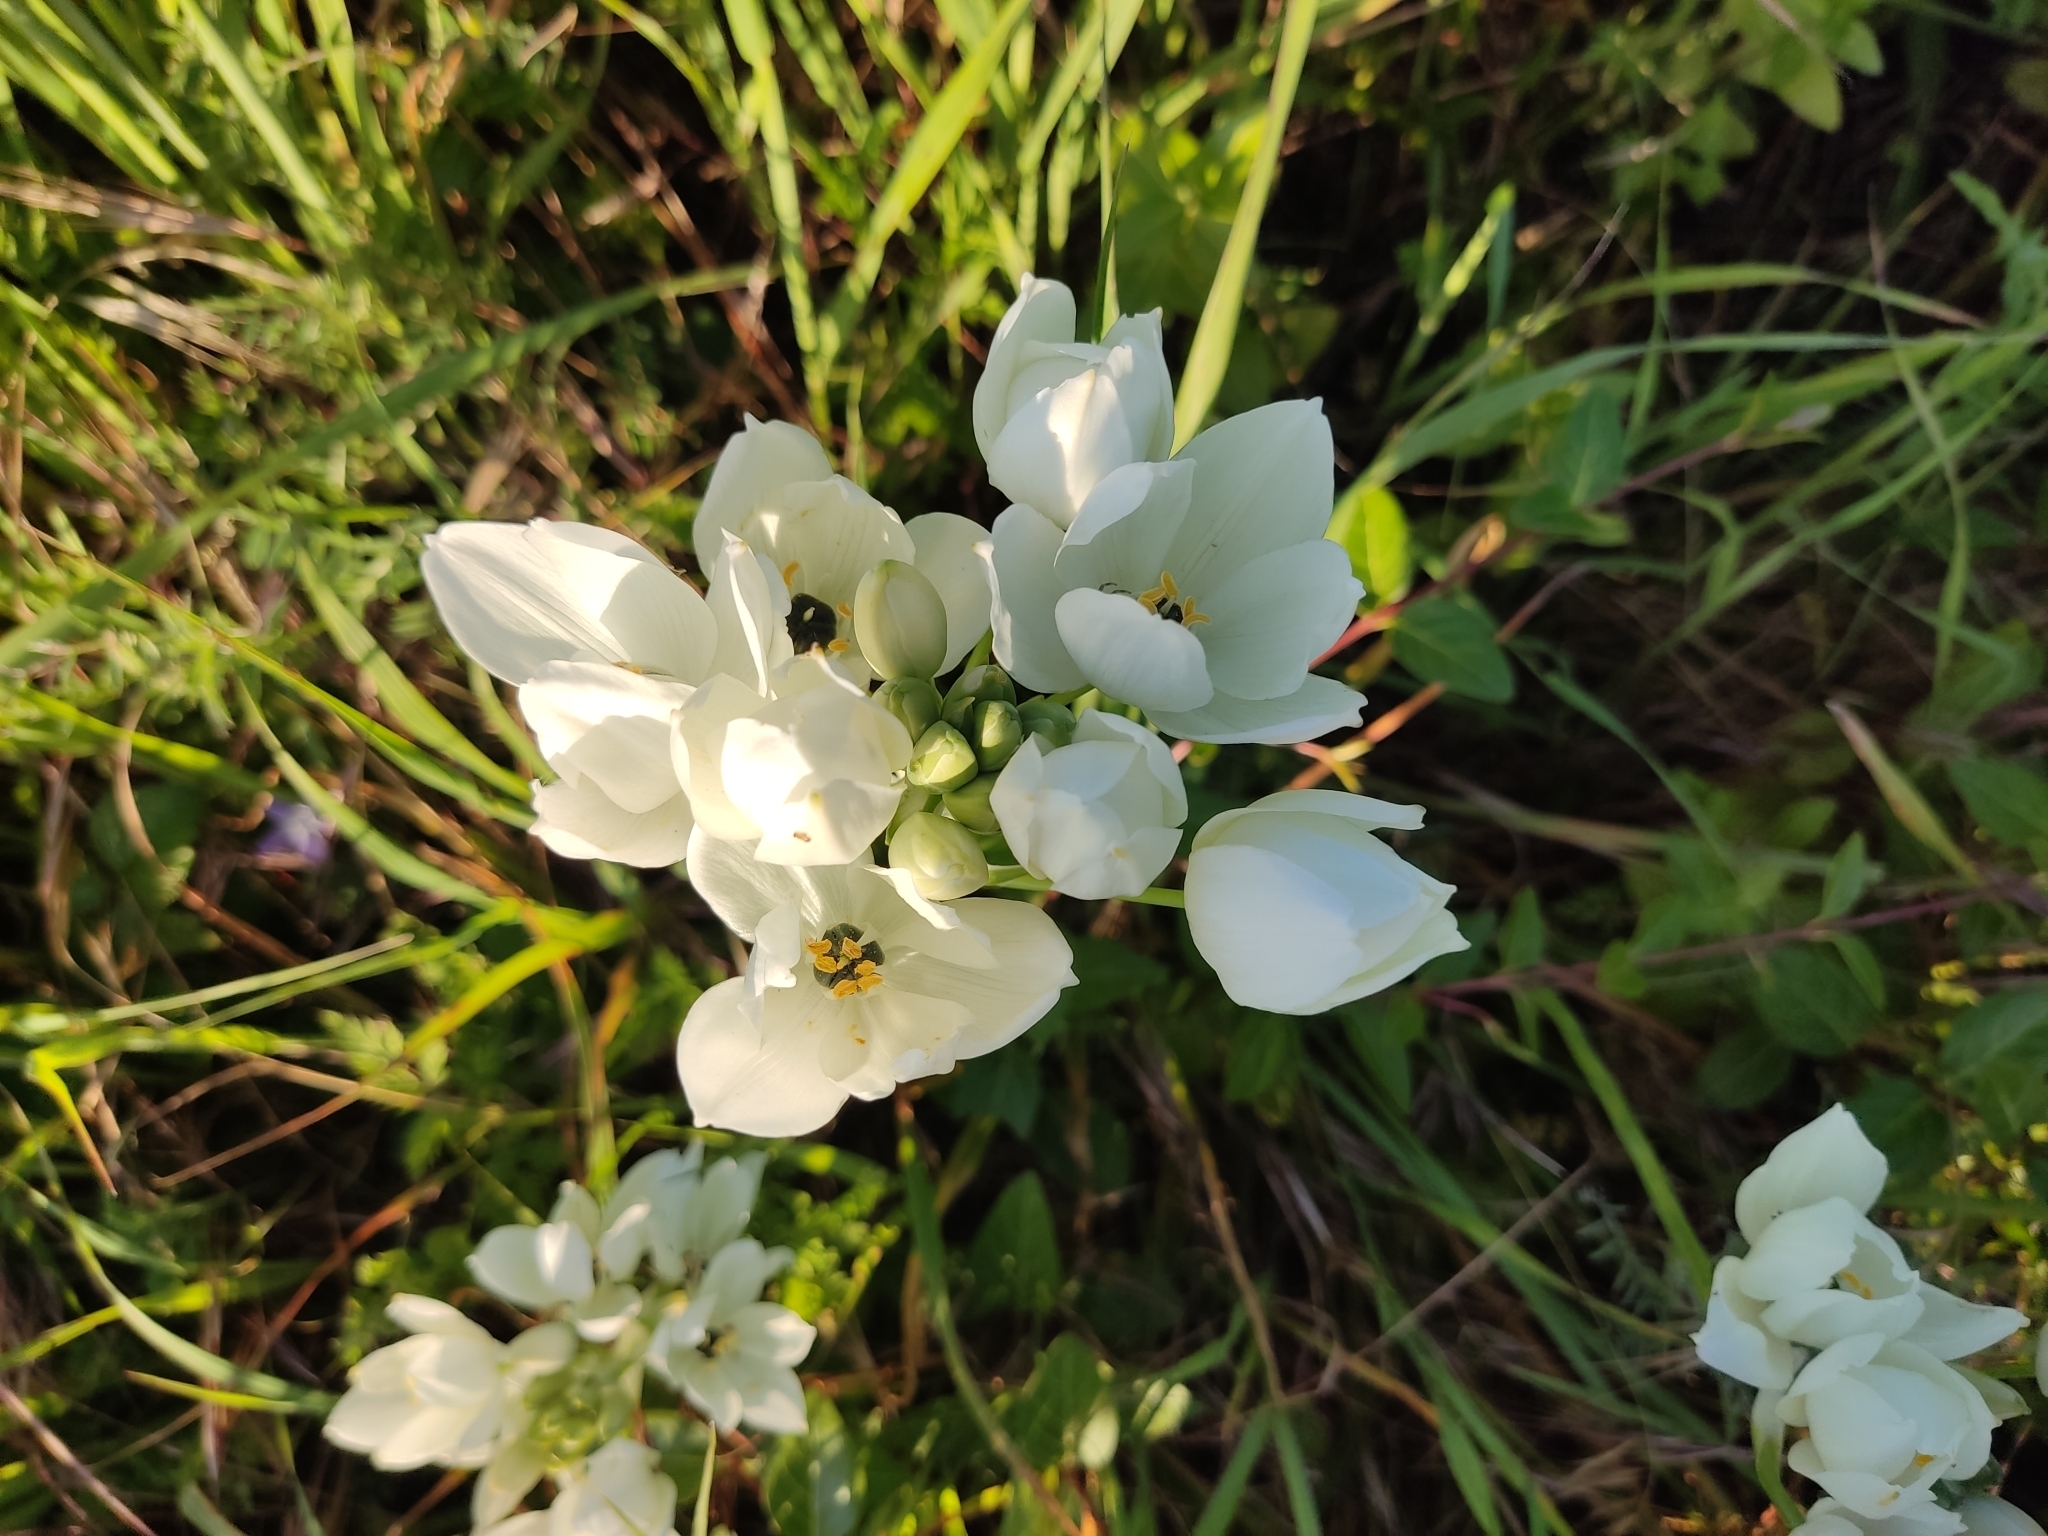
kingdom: Plantae
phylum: Tracheophyta
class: Liliopsida
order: Asparagales
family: Asparagaceae
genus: Ornithogalum
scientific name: Ornithogalum arabicum
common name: Arabian starflower
